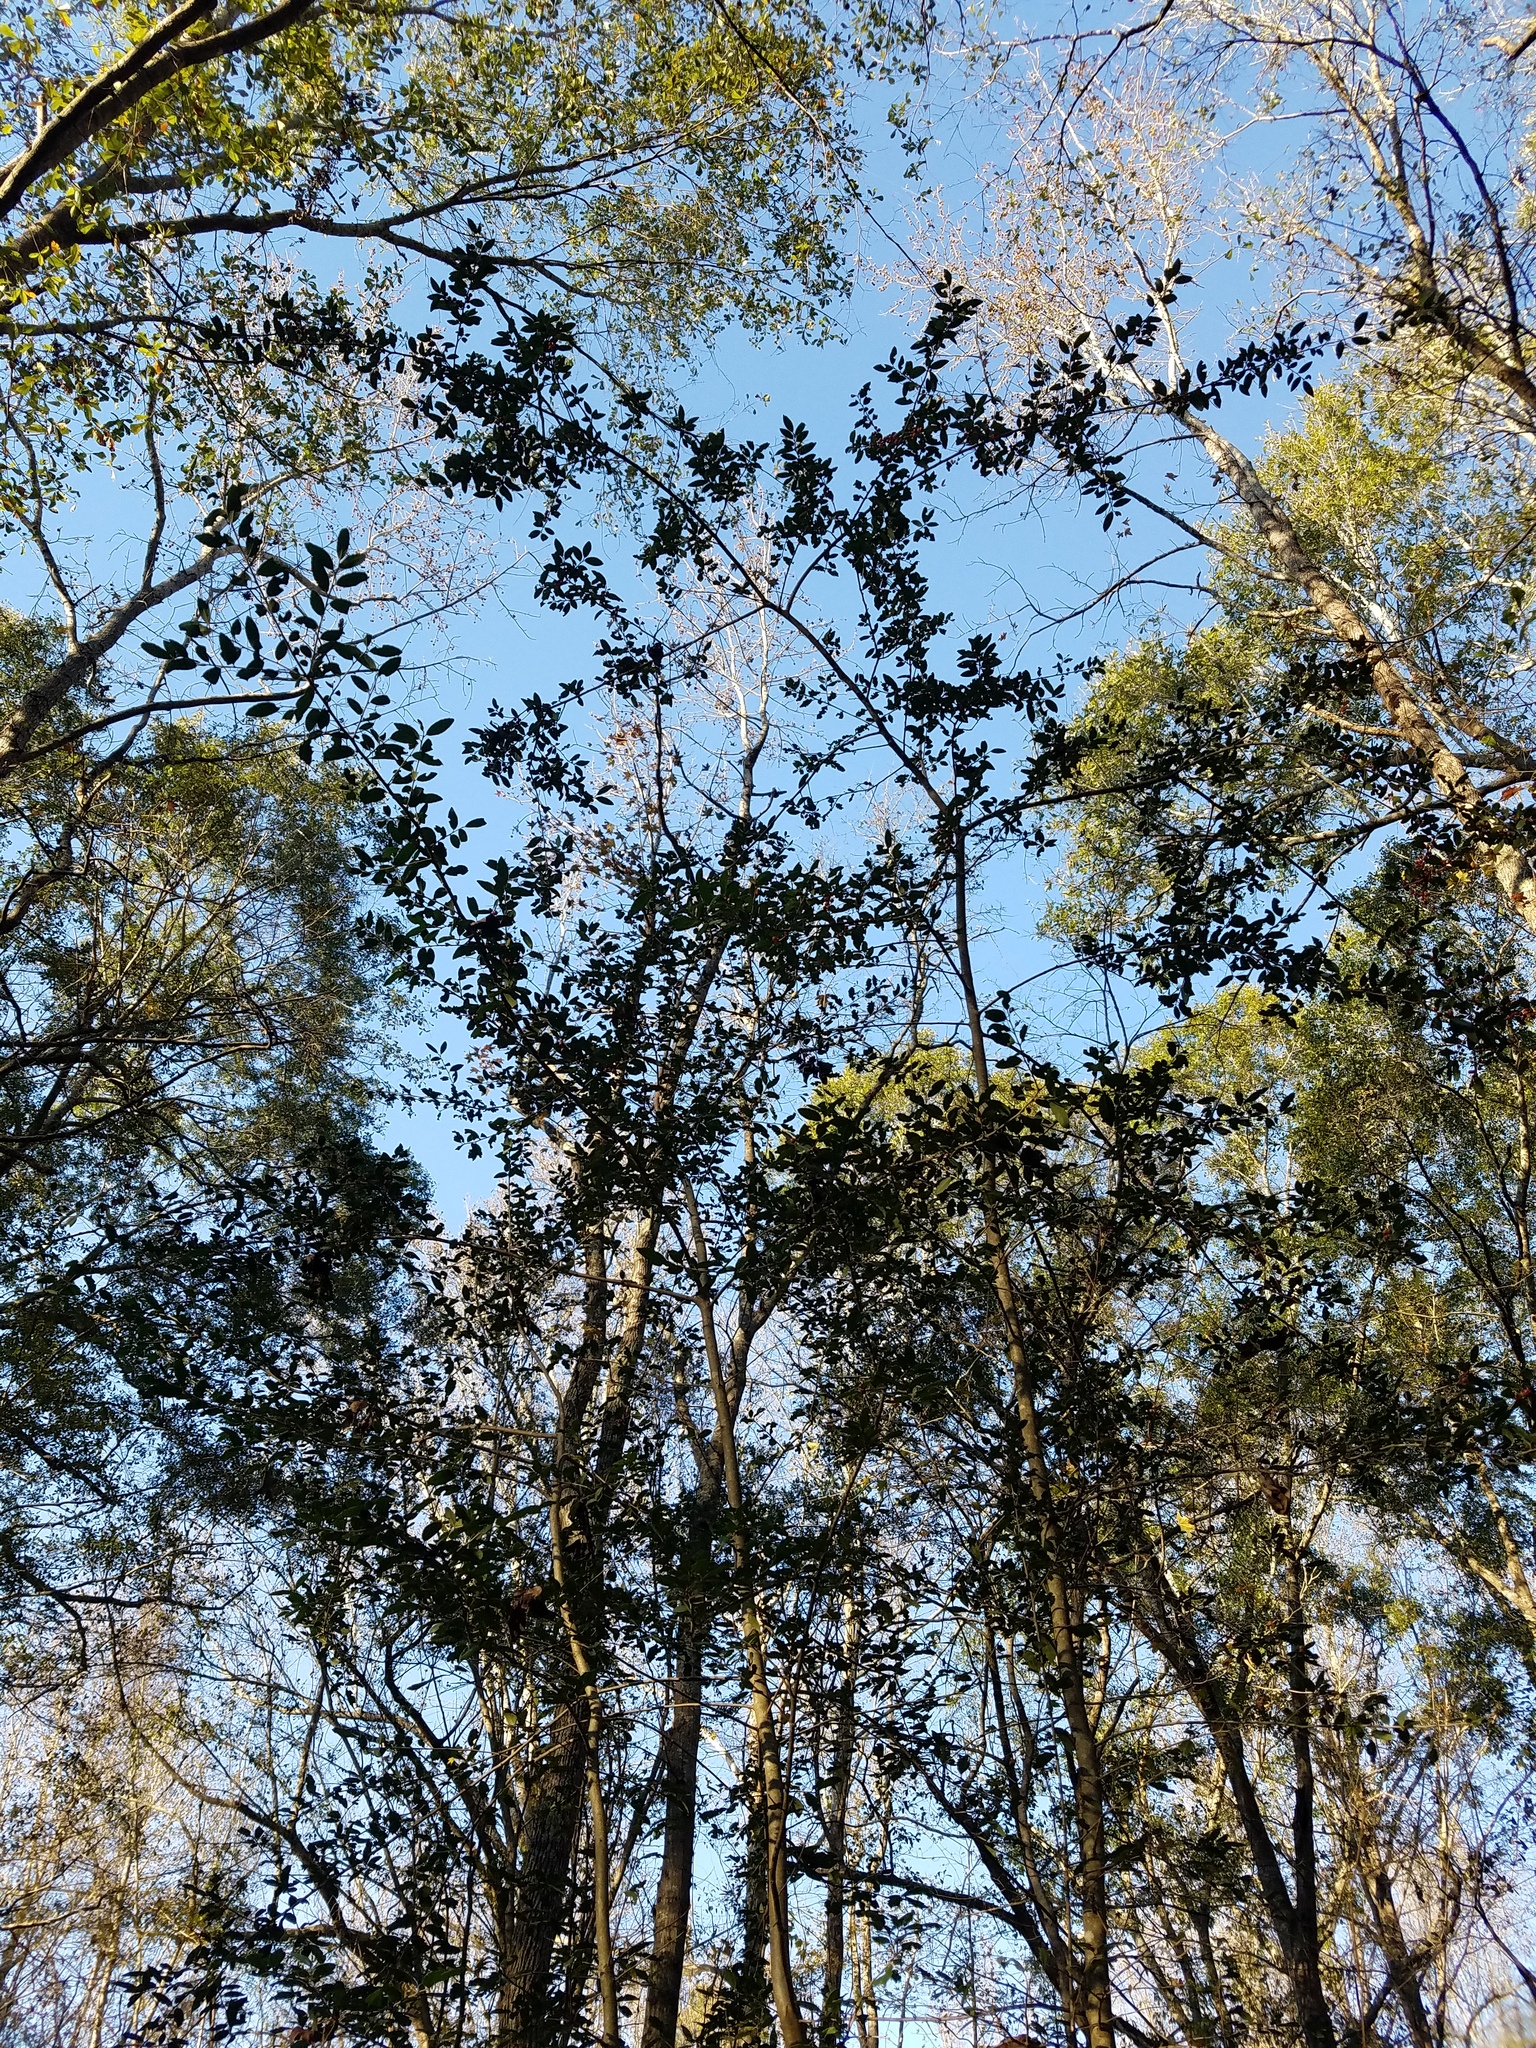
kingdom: Plantae
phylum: Tracheophyta
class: Magnoliopsida
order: Aquifoliales
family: Aquifoliaceae
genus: Ilex
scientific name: Ilex vomitoria
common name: Yaupon holly
